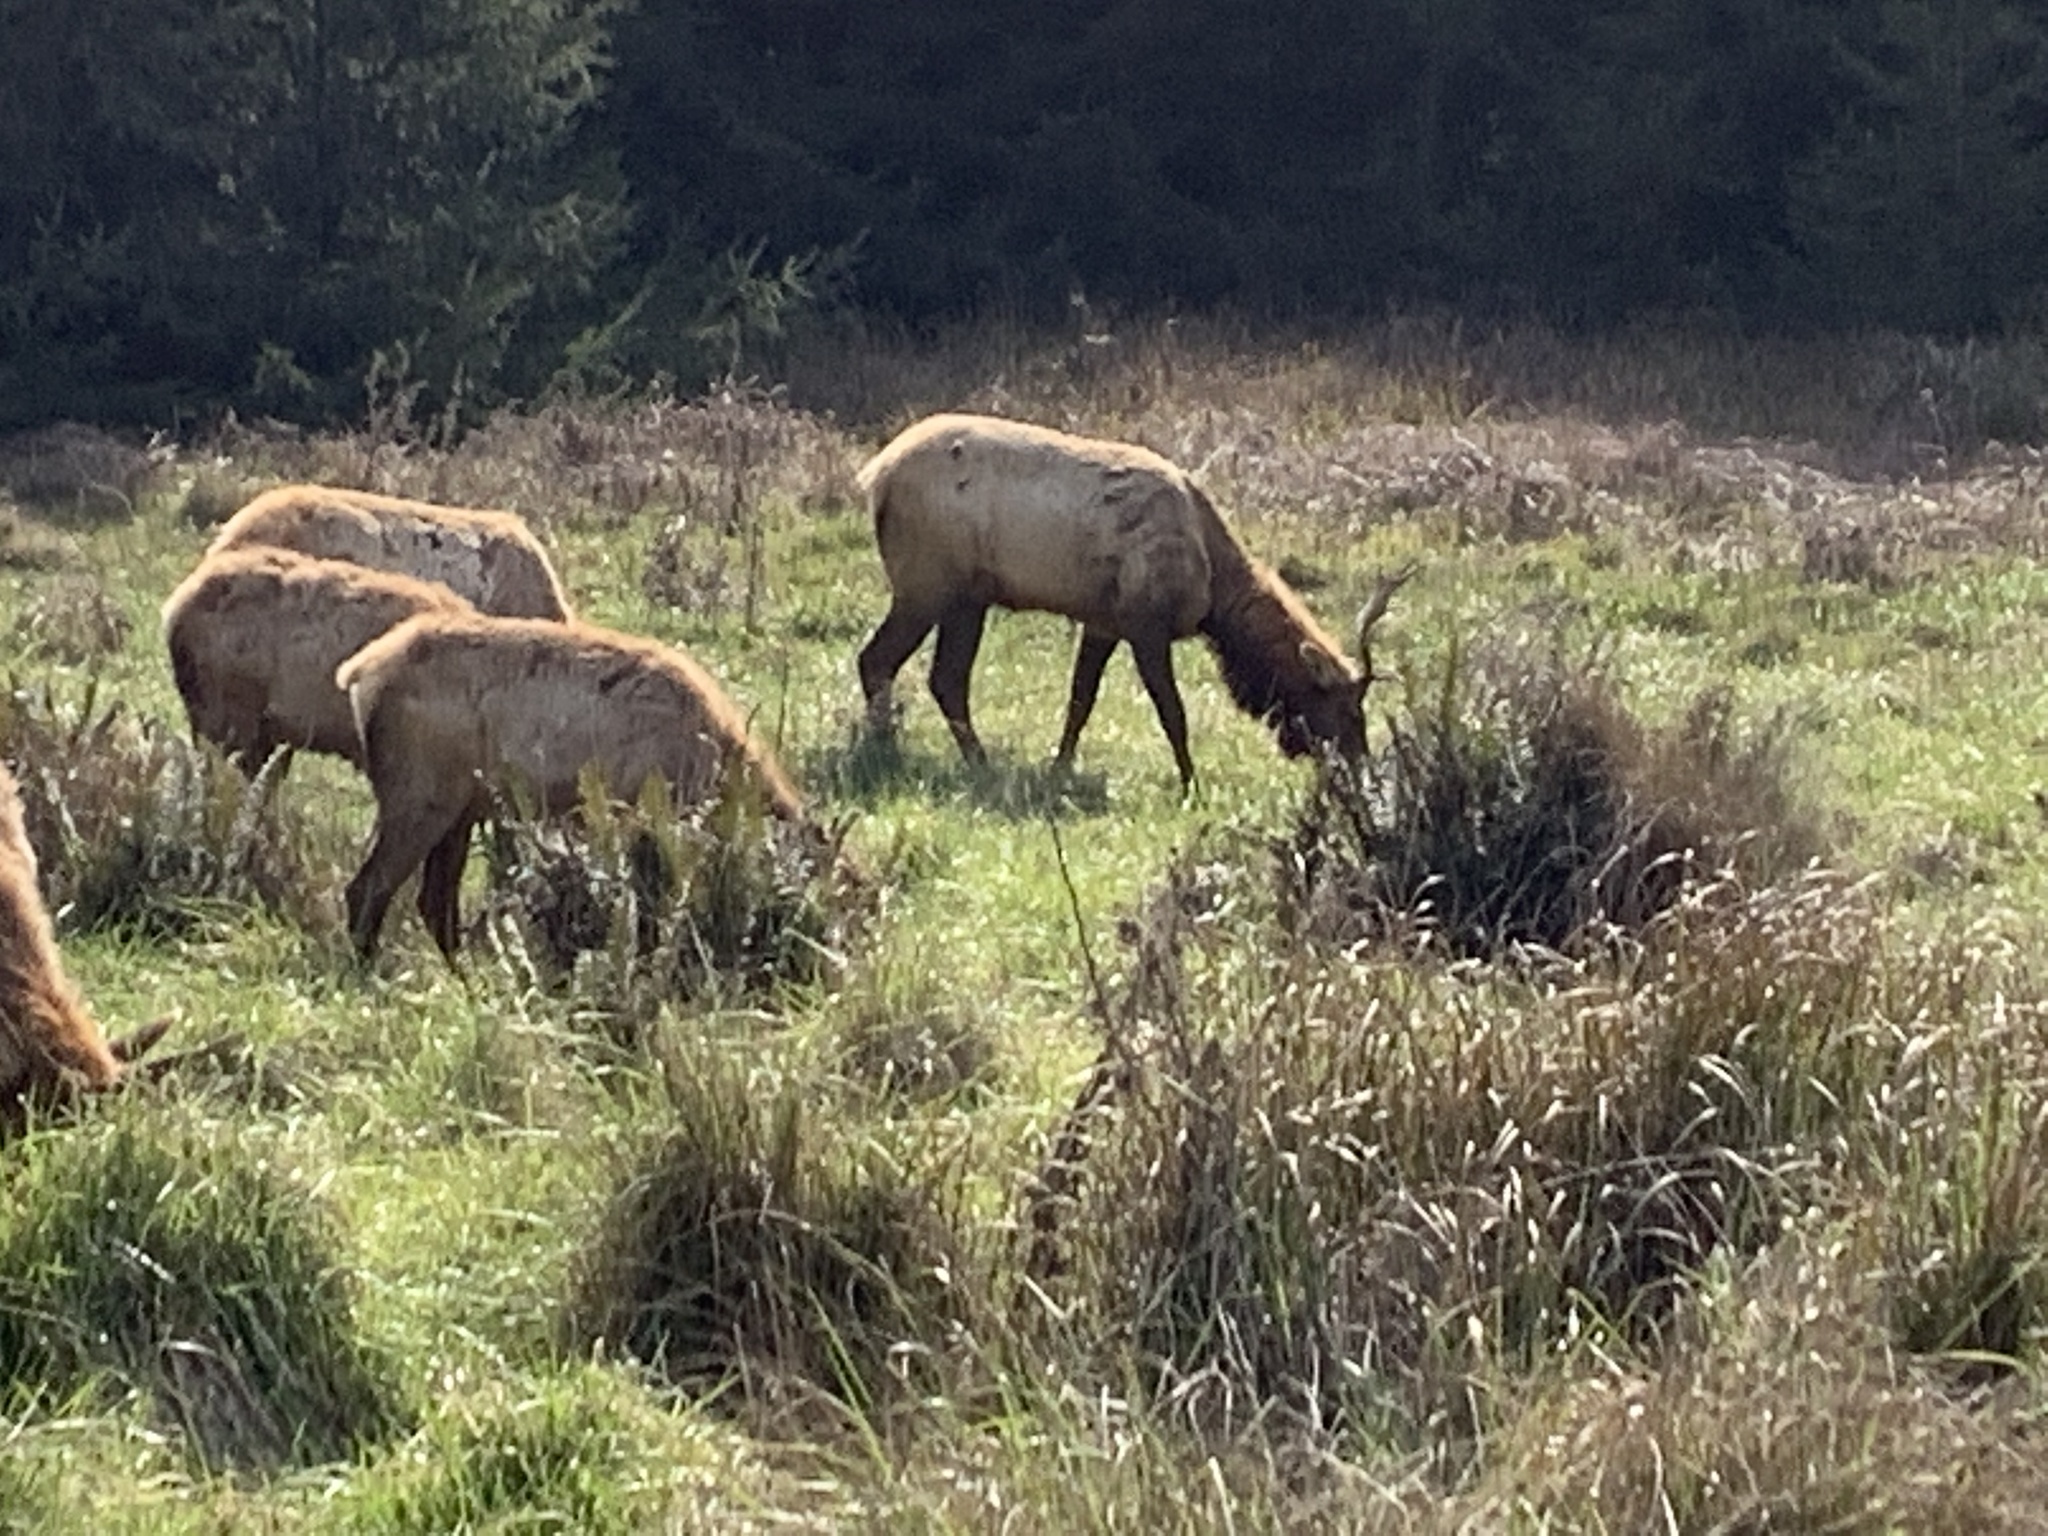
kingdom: Animalia
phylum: Chordata
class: Mammalia
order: Artiodactyla
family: Cervidae
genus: Cervus
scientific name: Cervus elaphus
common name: Red deer
